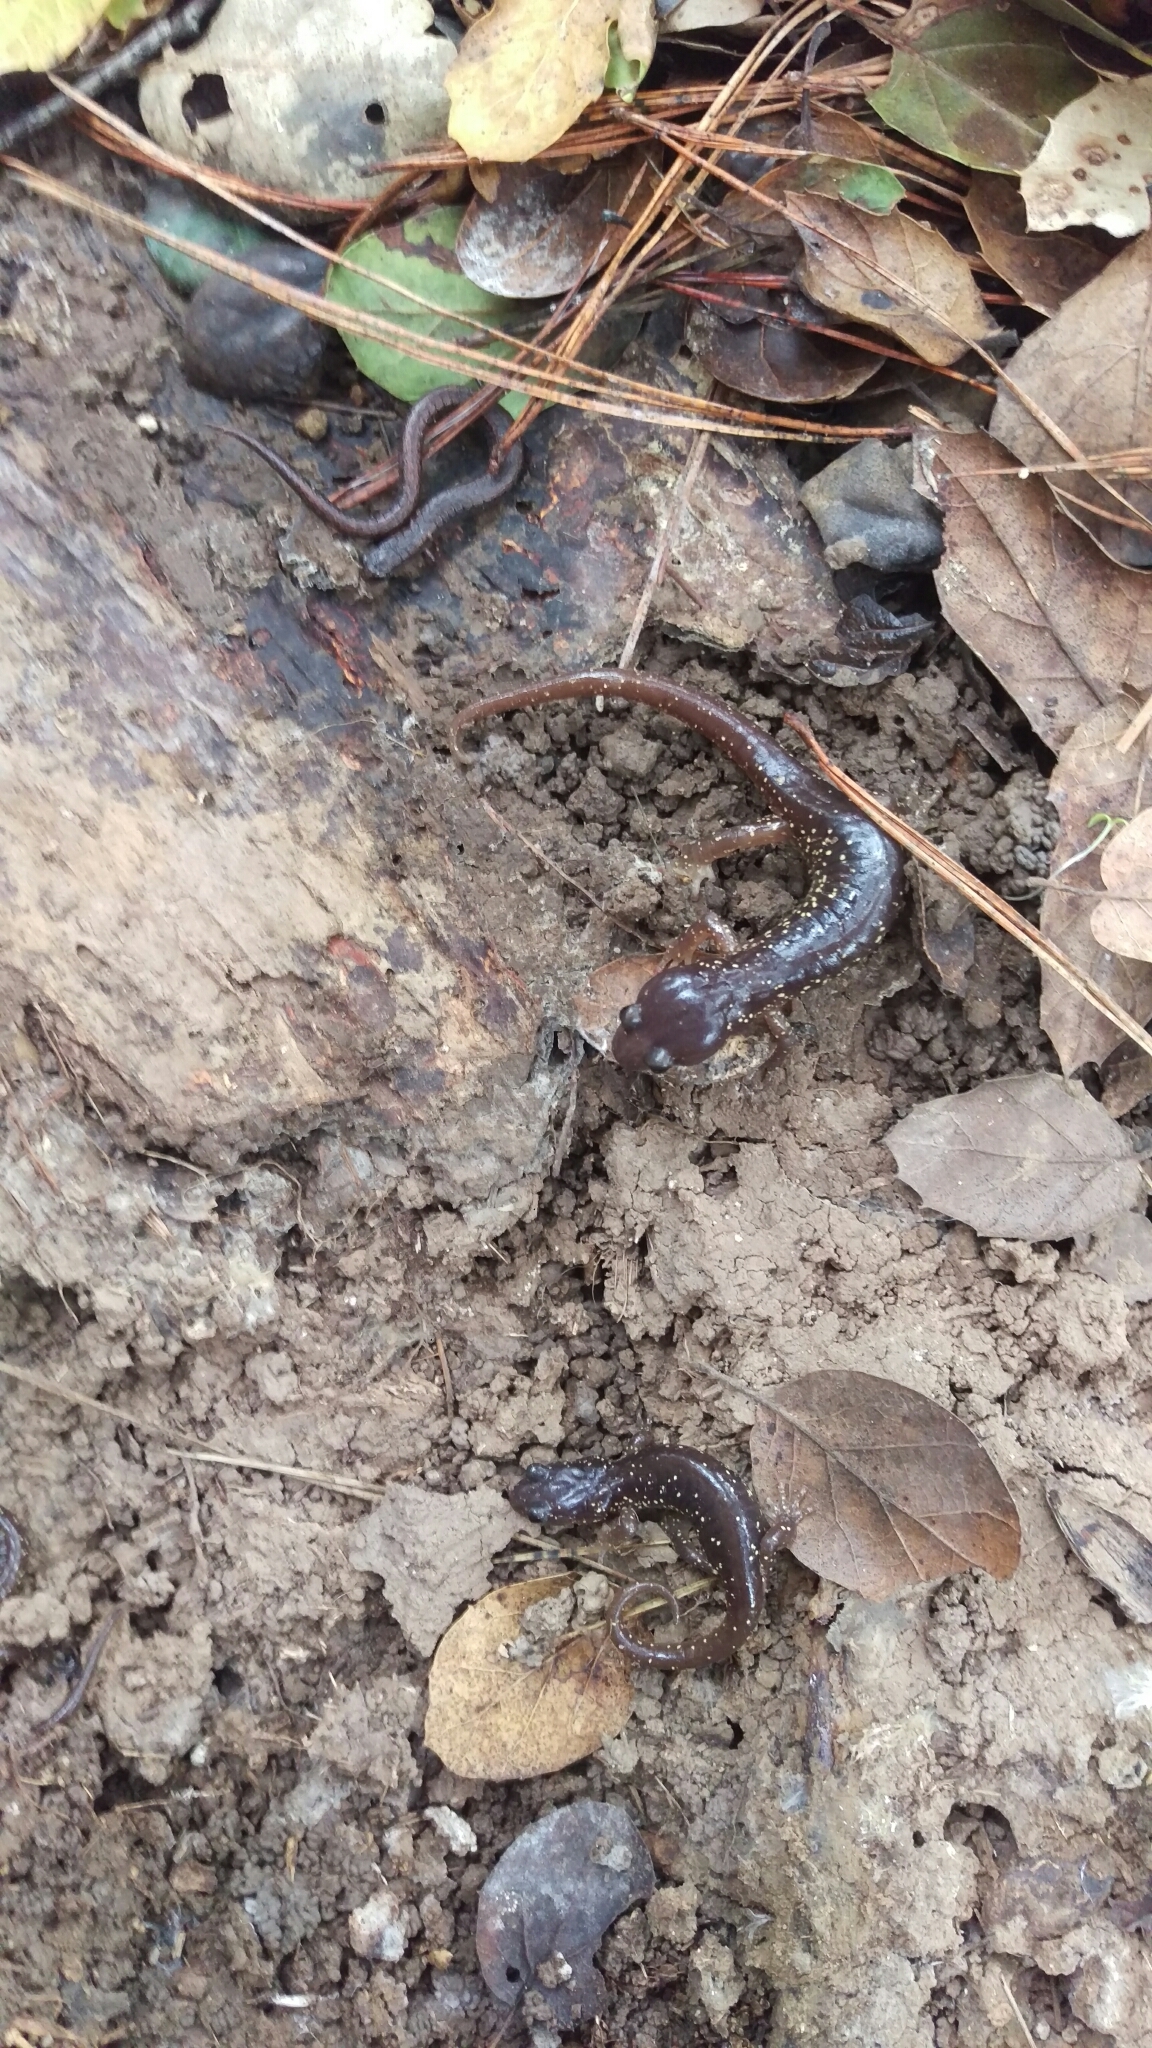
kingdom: Animalia
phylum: Chordata
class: Amphibia
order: Caudata
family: Plethodontidae
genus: Aneides
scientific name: Aneides lugubris
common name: Arboreal salamander
